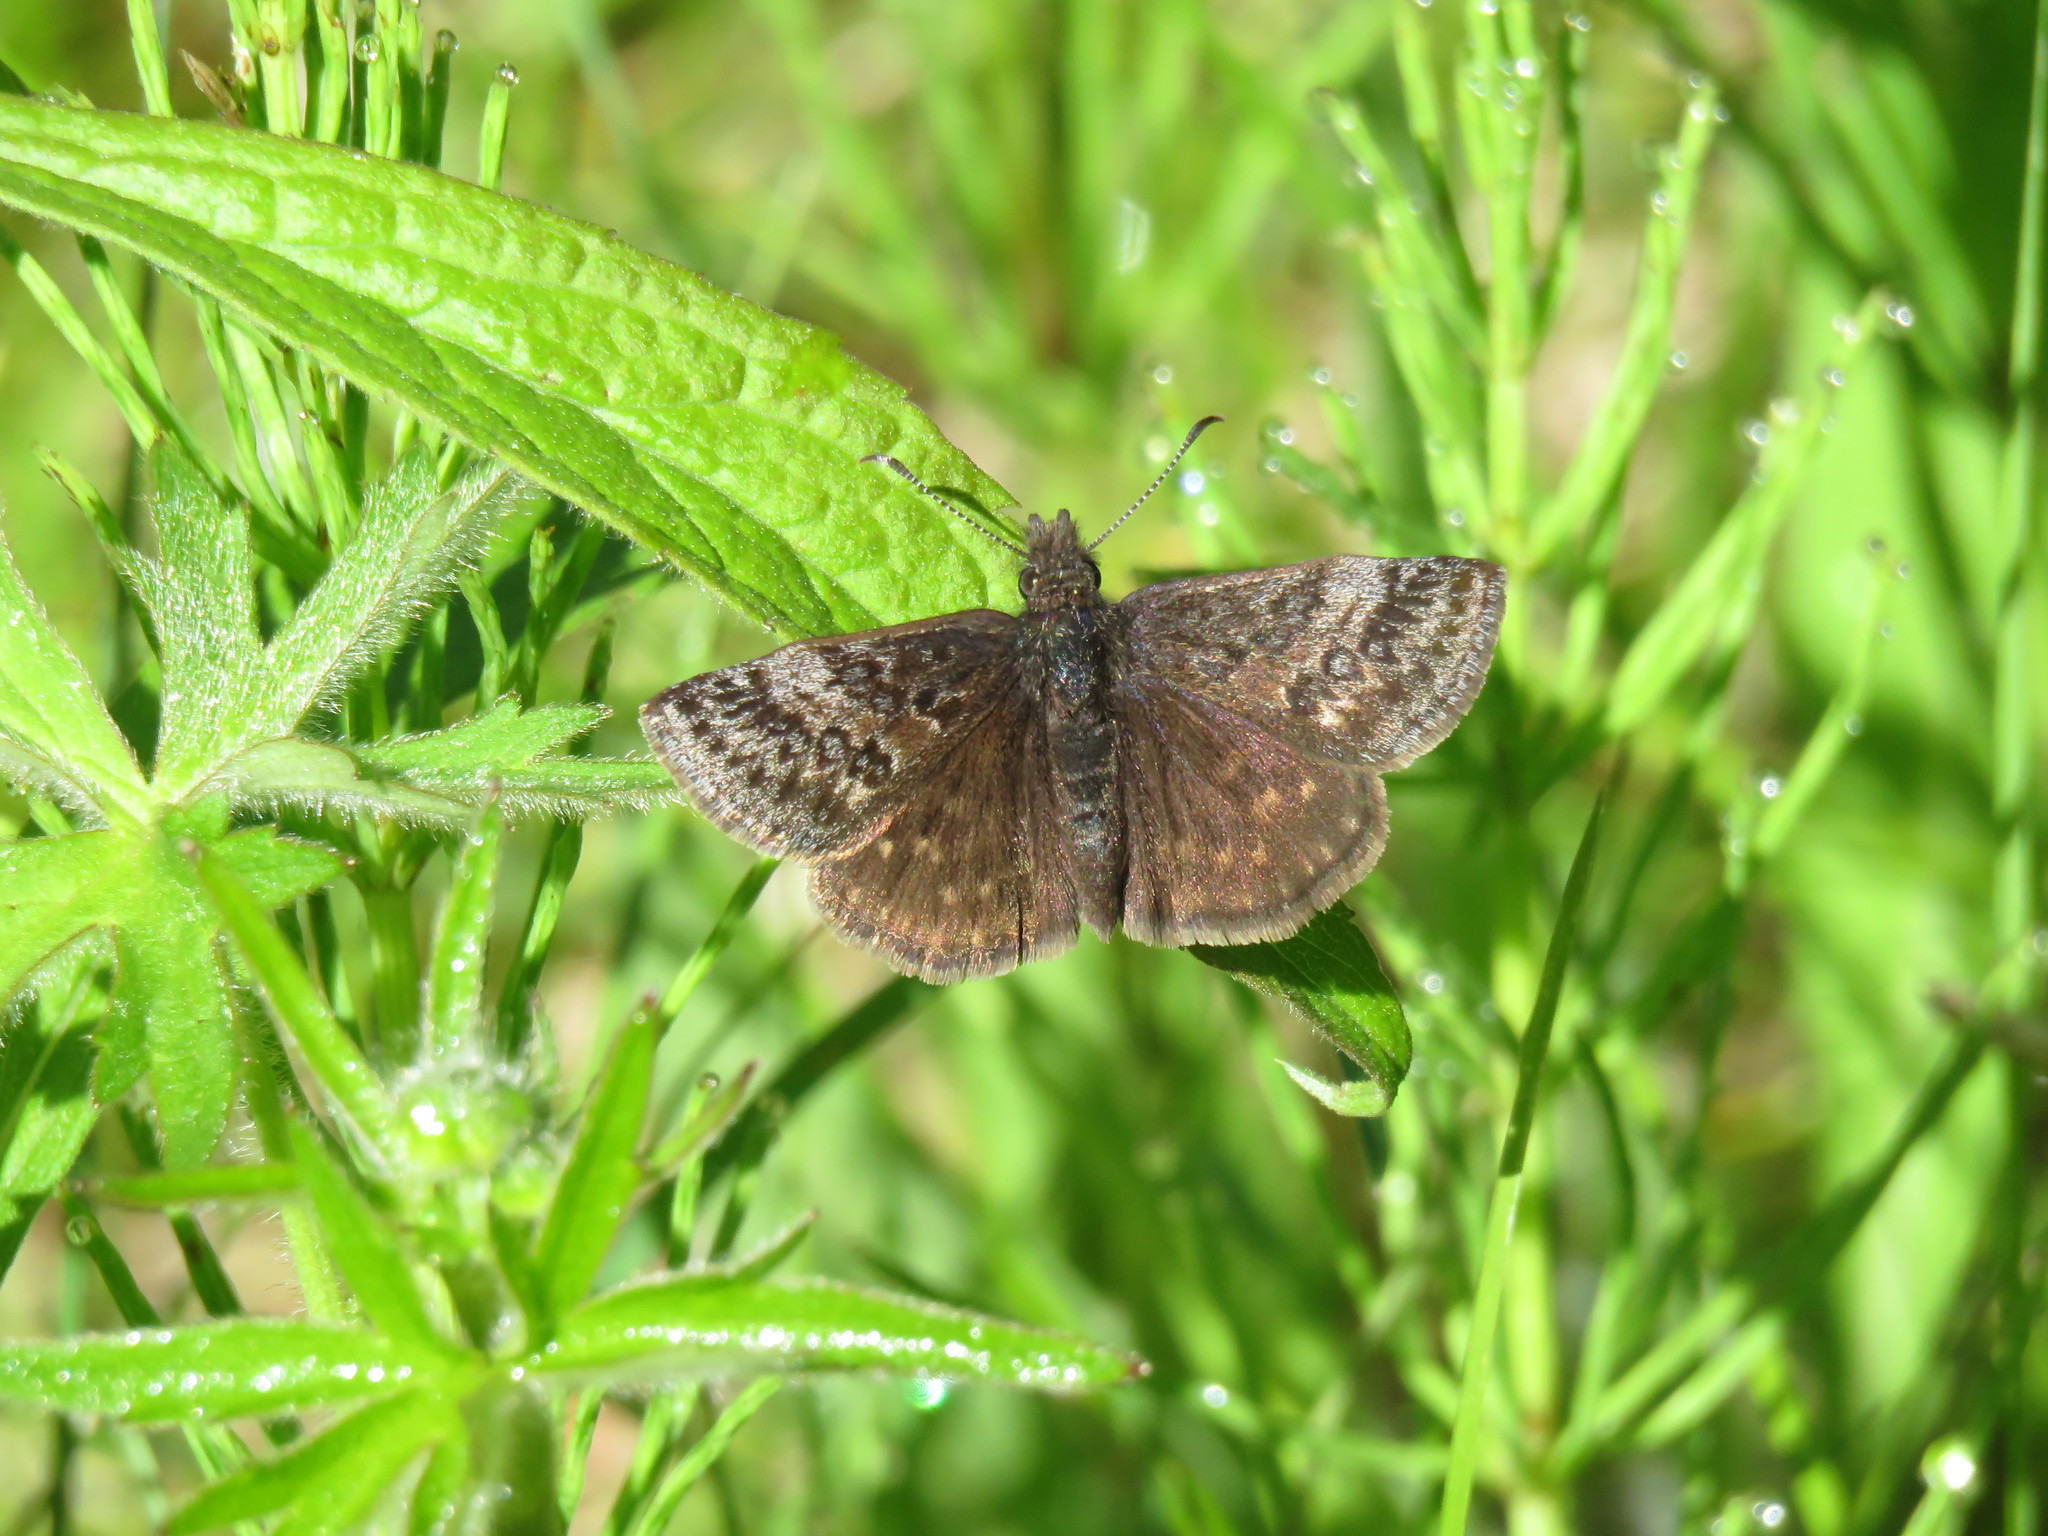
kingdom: Animalia
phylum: Arthropoda
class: Insecta
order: Lepidoptera
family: Hesperiidae
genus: Erynnis
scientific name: Erynnis icelus
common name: Dreamy duskywing
